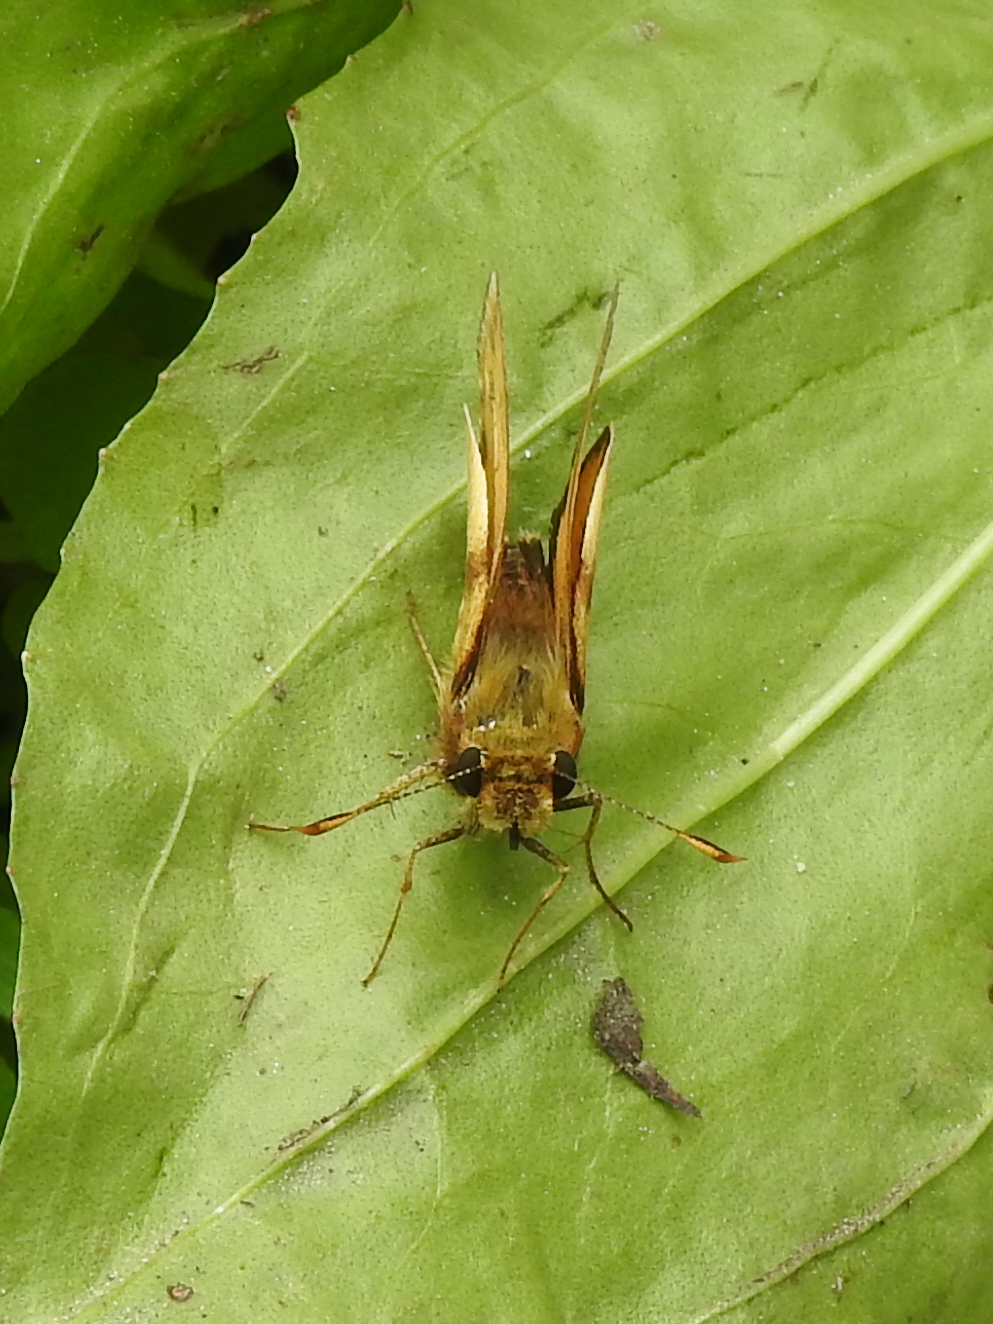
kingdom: Animalia
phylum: Arthropoda
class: Insecta
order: Lepidoptera
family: Hesperiidae
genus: Lon
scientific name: Lon zabulon
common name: Zabulon skipper
